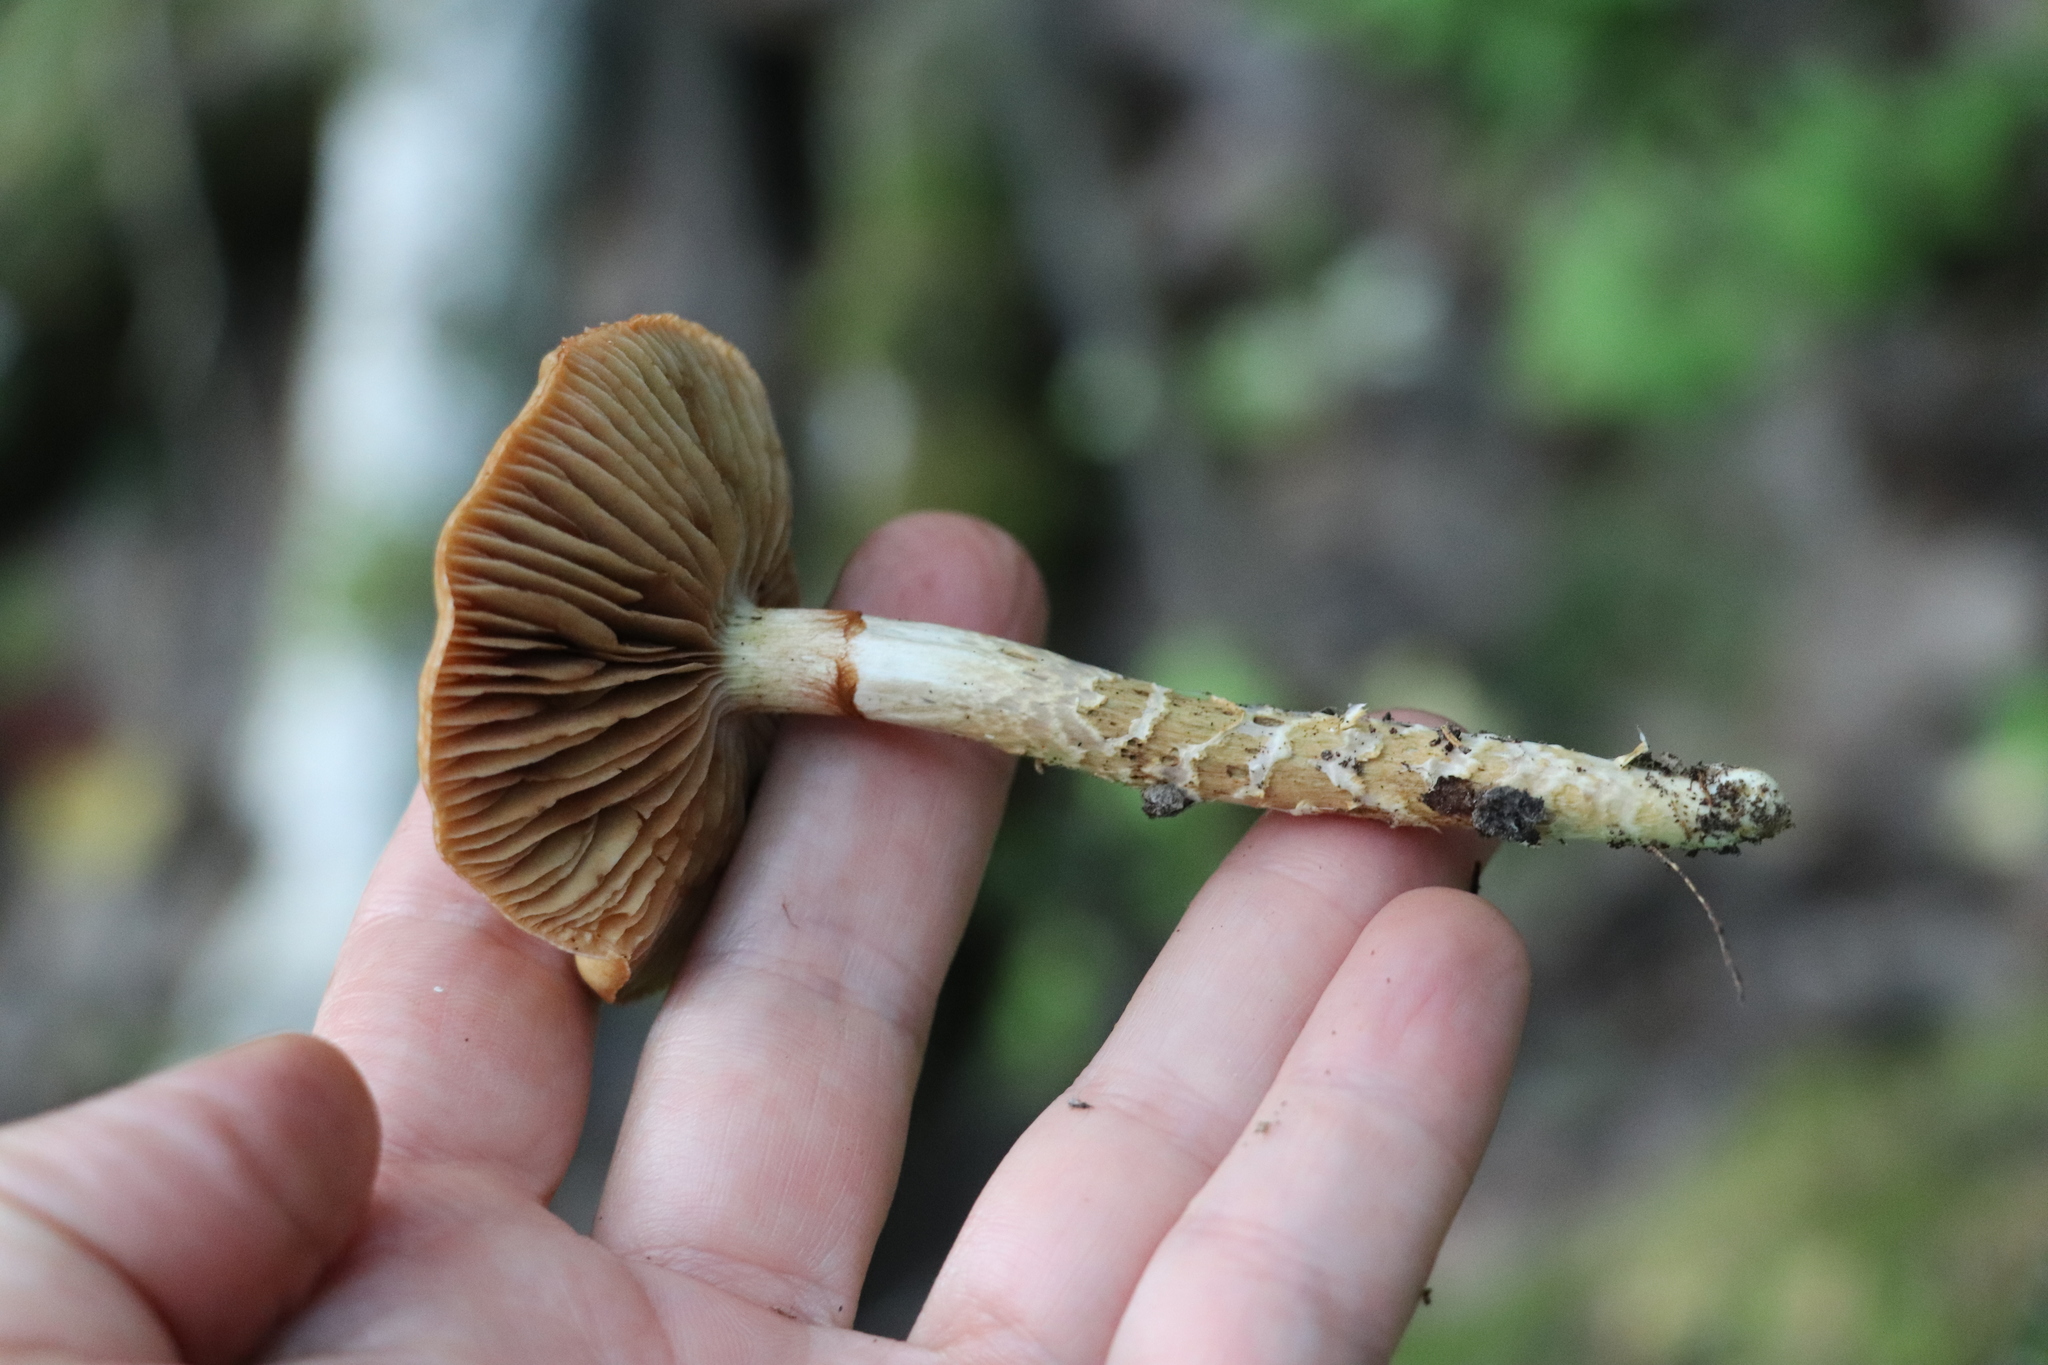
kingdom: Fungi
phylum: Basidiomycota
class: Agaricomycetes
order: Agaricales
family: Cortinariaceae
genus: Cortinarius
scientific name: Cortinarius trivialis
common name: Girdled webcap
